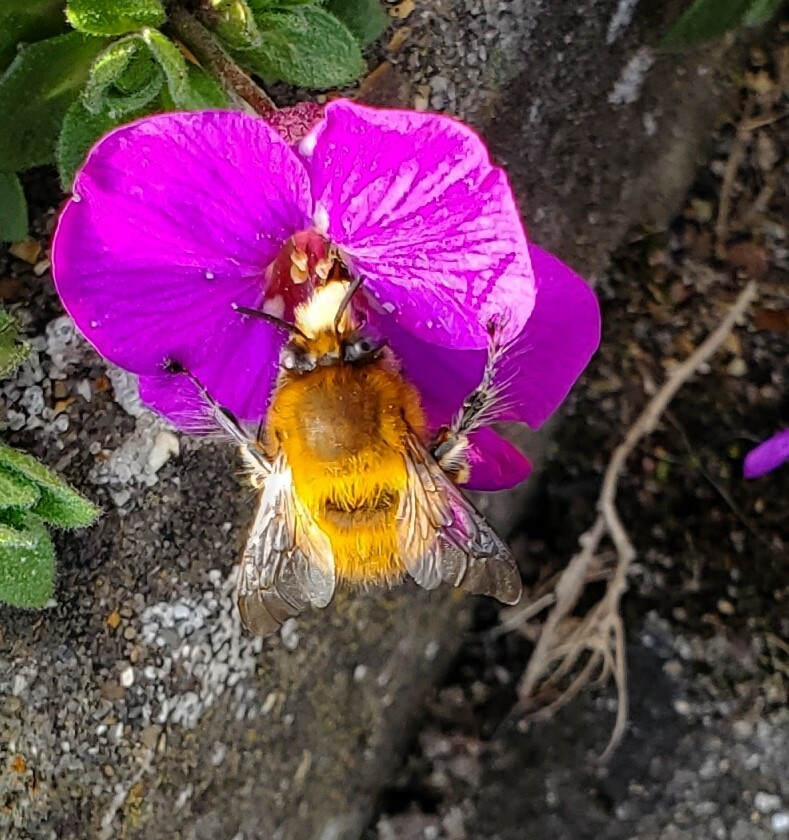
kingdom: Animalia
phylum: Arthropoda
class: Insecta
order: Hymenoptera
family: Apidae
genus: Anthophora
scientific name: Anthophora plumipes
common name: Hairy-footed flower bee
